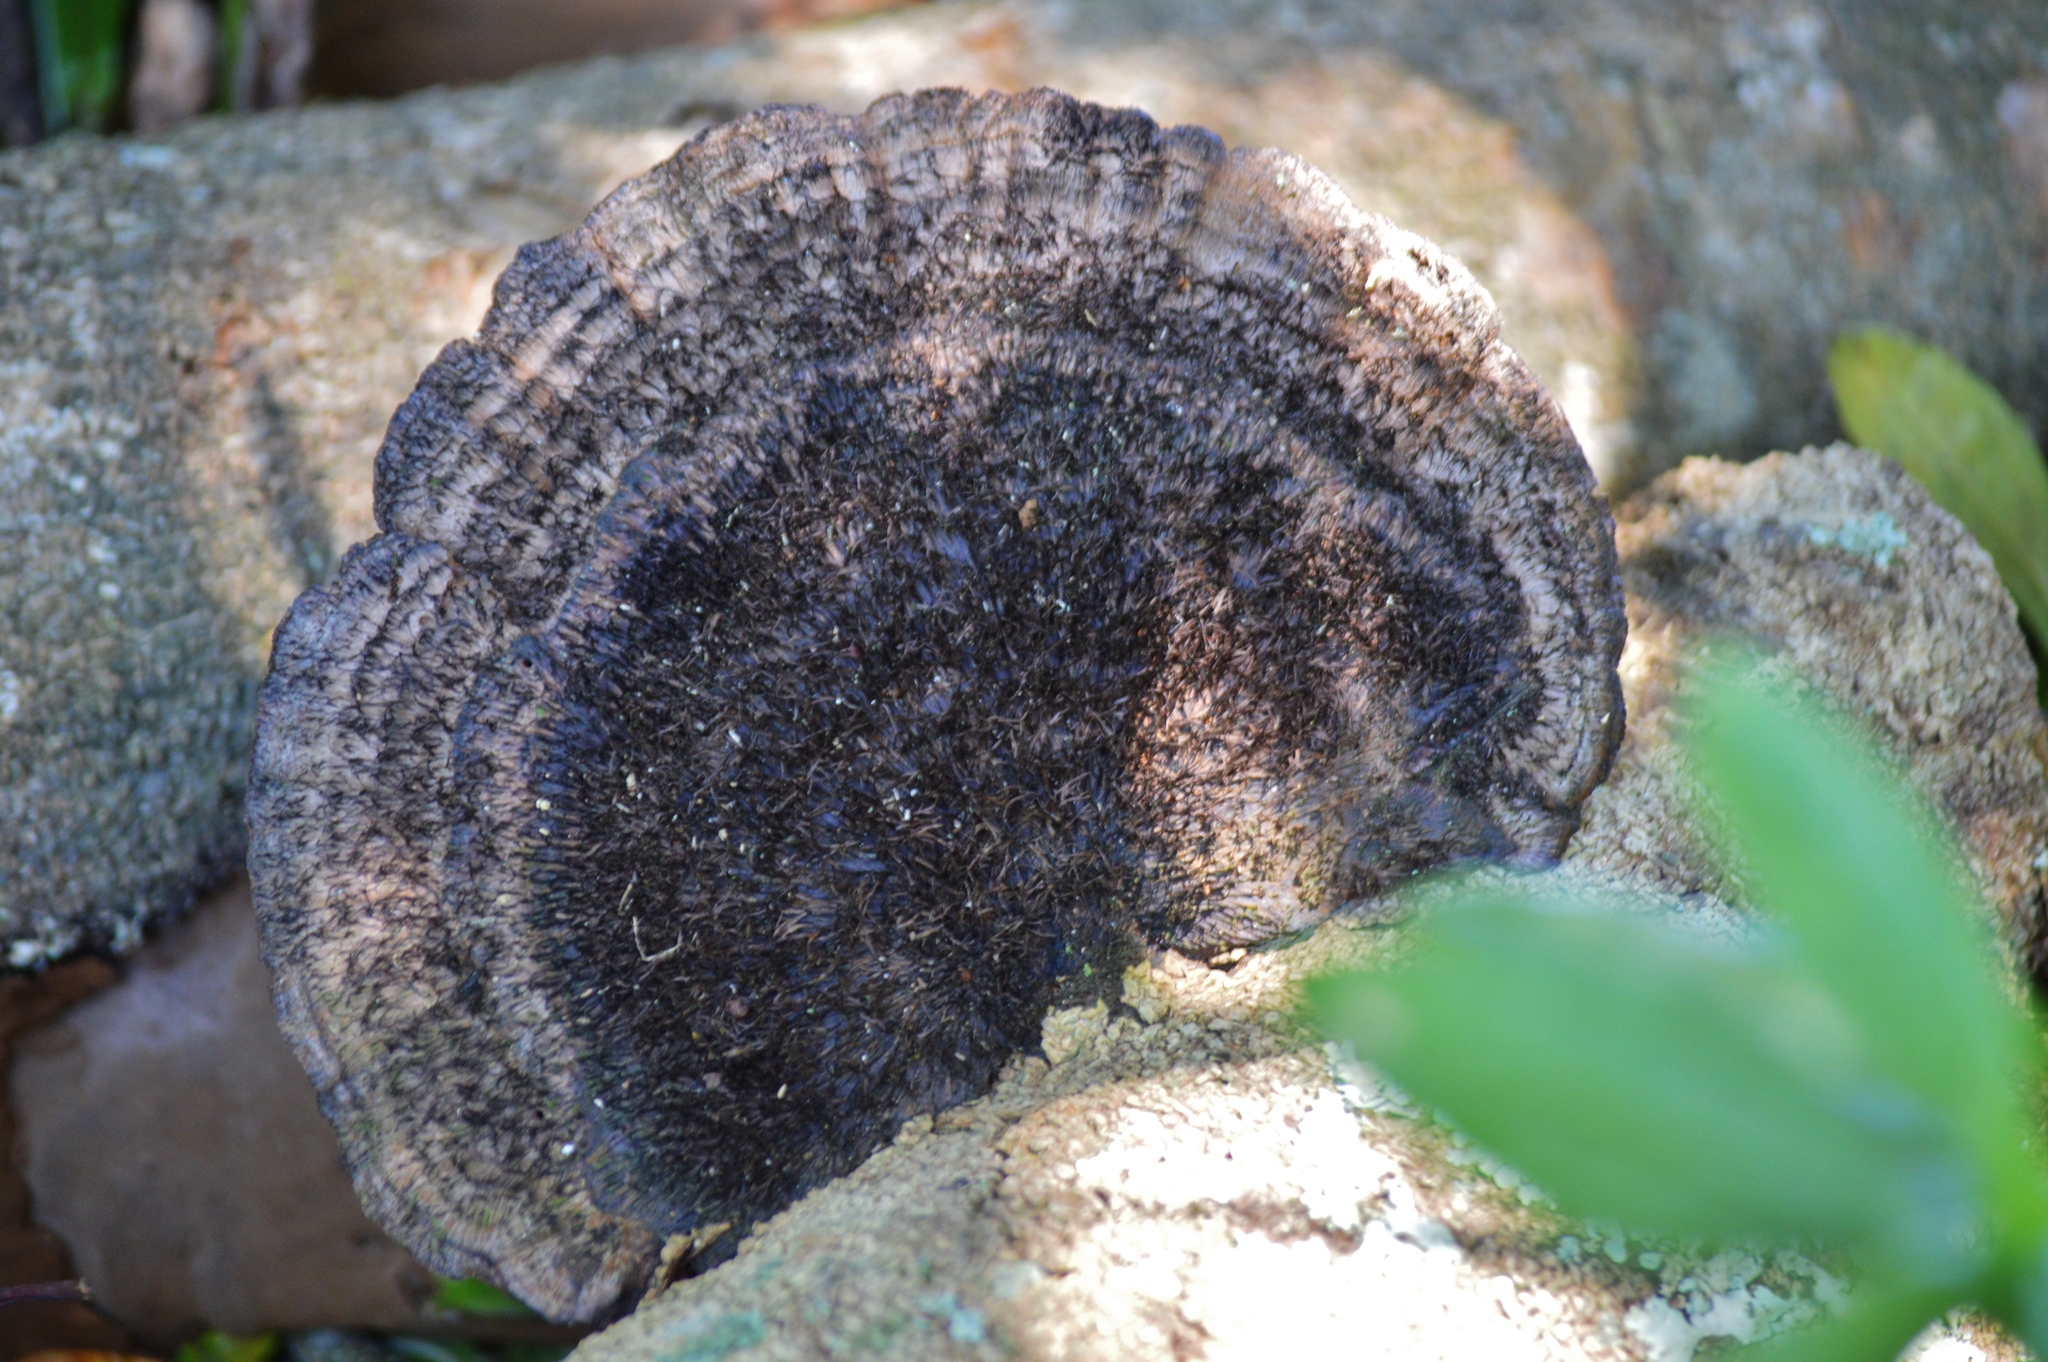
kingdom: Fungi
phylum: Basidiomycota
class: Agaricomycetes
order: Polyporales
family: Cerrenaceae
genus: Cerrena
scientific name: Cerrena hydnoides
